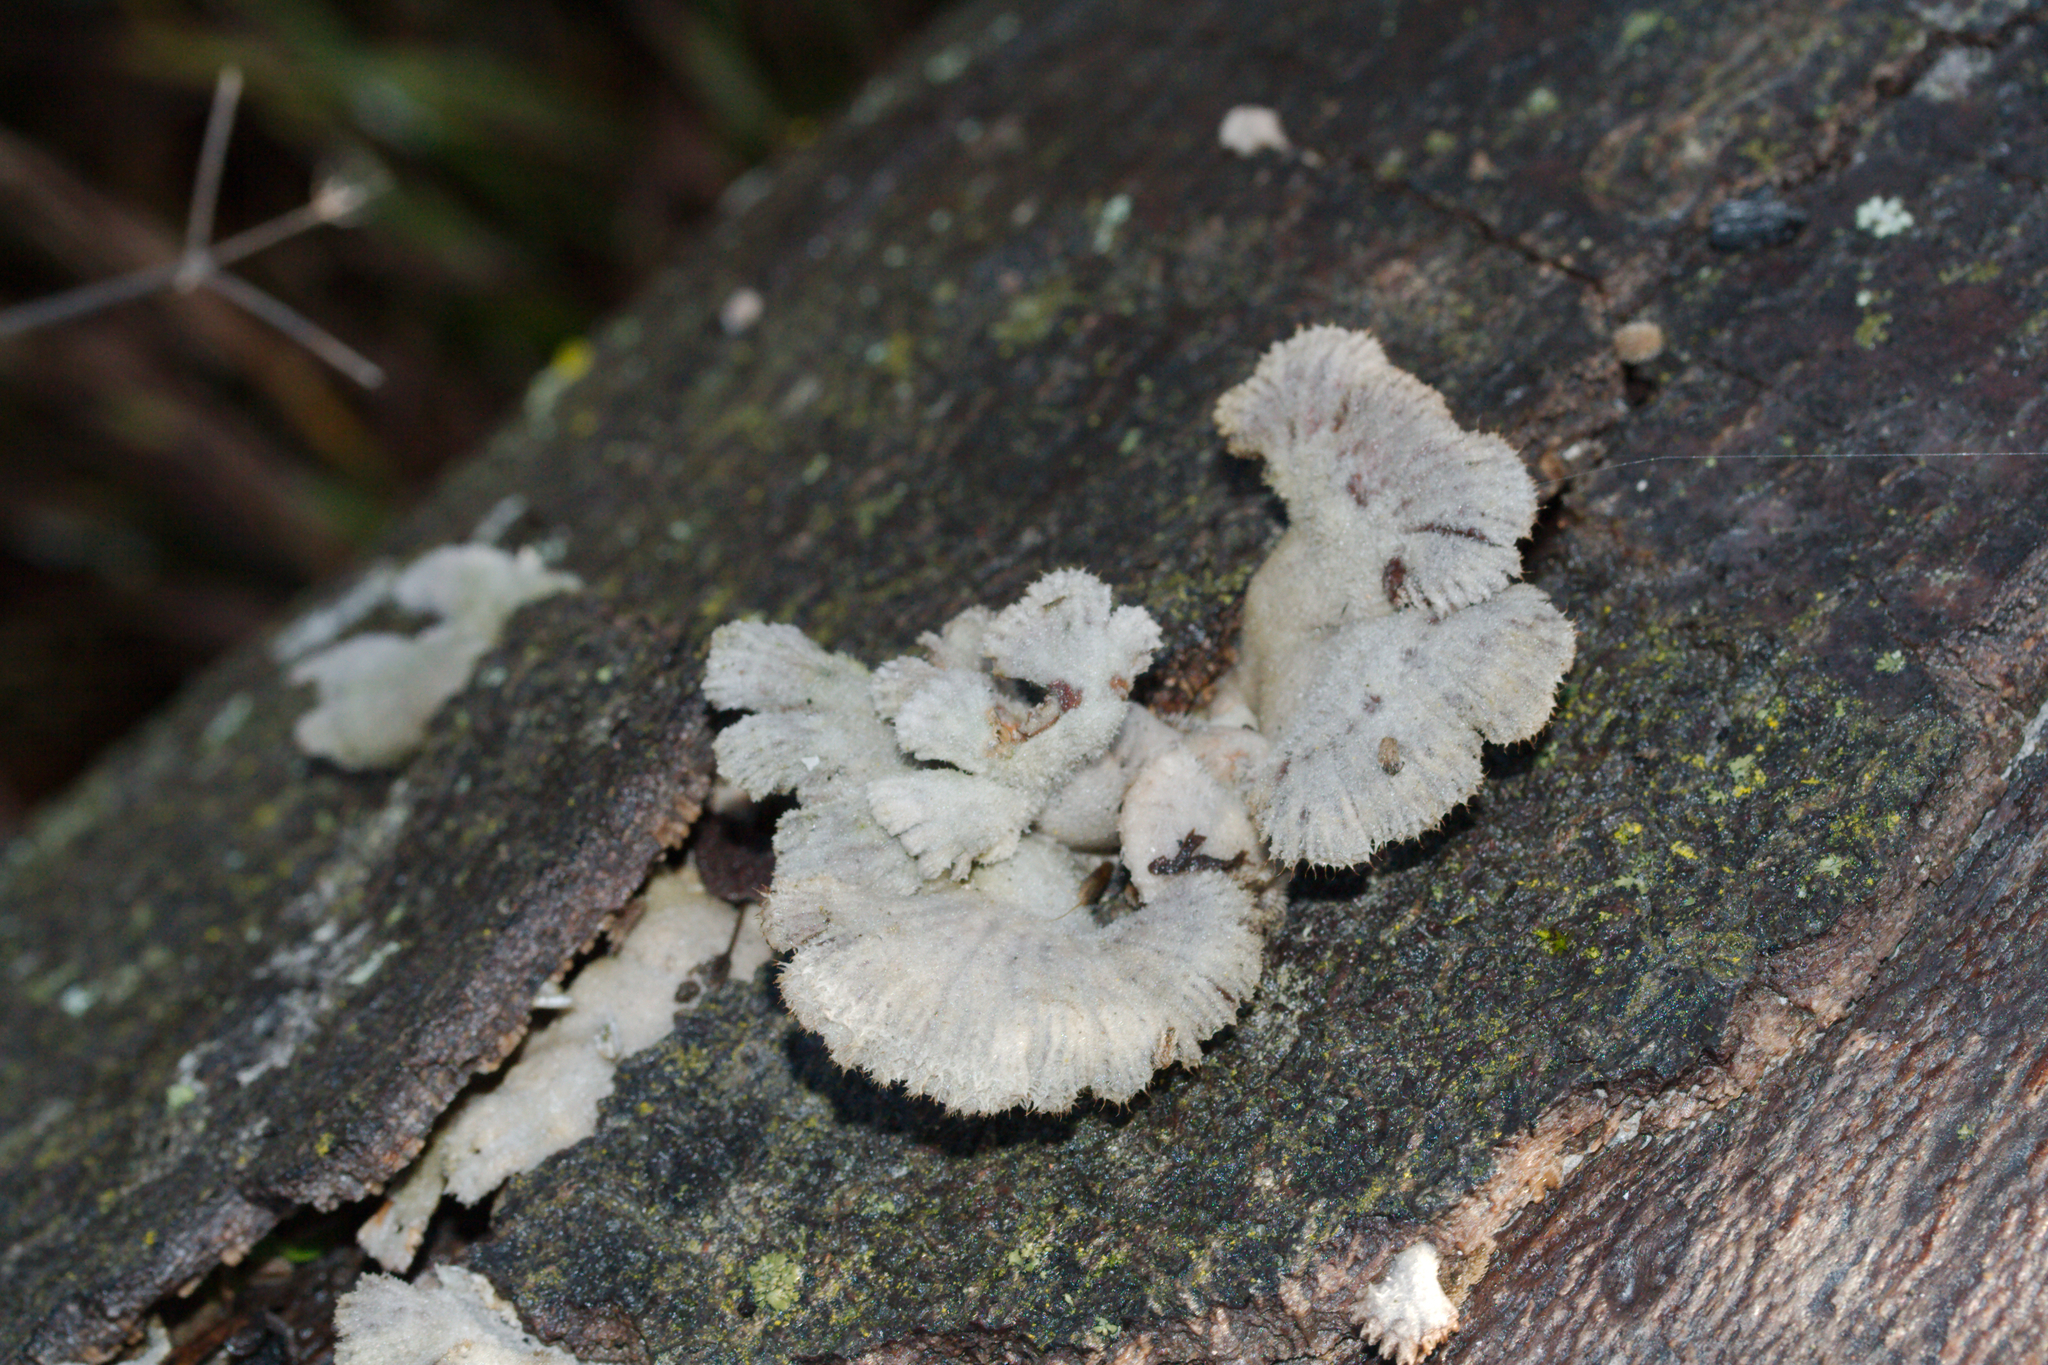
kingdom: Fungi
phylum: Basidiomycota
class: Agaricomycetes
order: Agaricales
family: Schizophyllaceae
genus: Schizophyllum
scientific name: Schizophyllum commune
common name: Common porecrust
